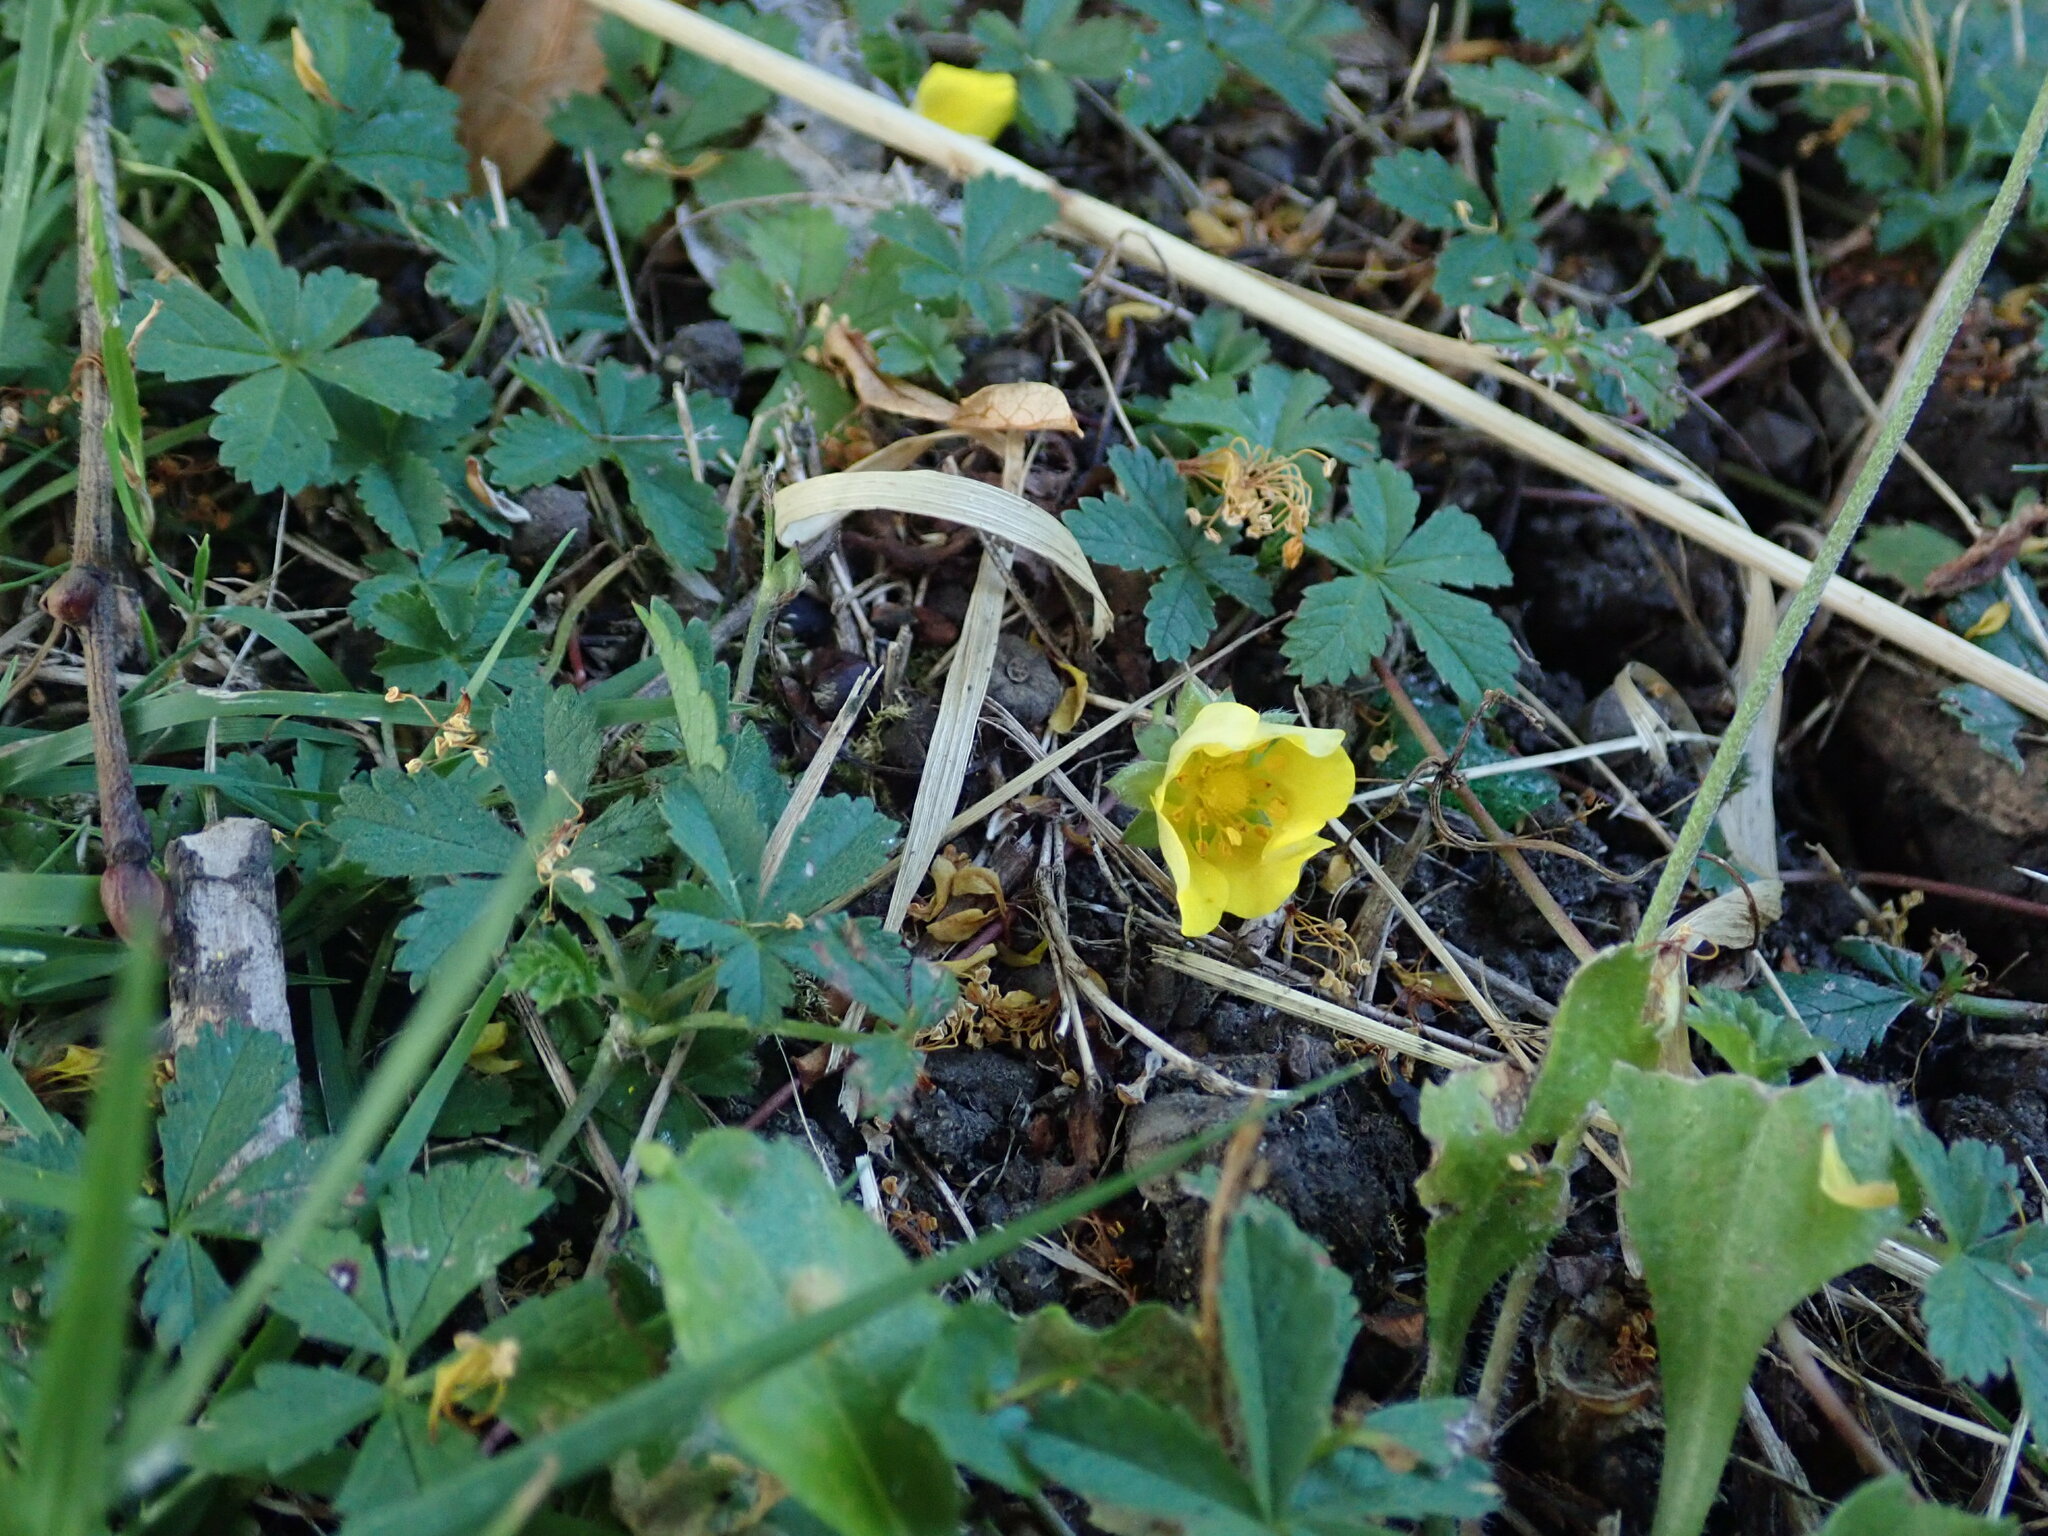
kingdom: Plantae
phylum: Tracheophyta
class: Magnoliopsida
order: Rosales
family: Rosaceae
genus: Potentilla
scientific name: Potentilla reptans
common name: Creeping cinquefoil
